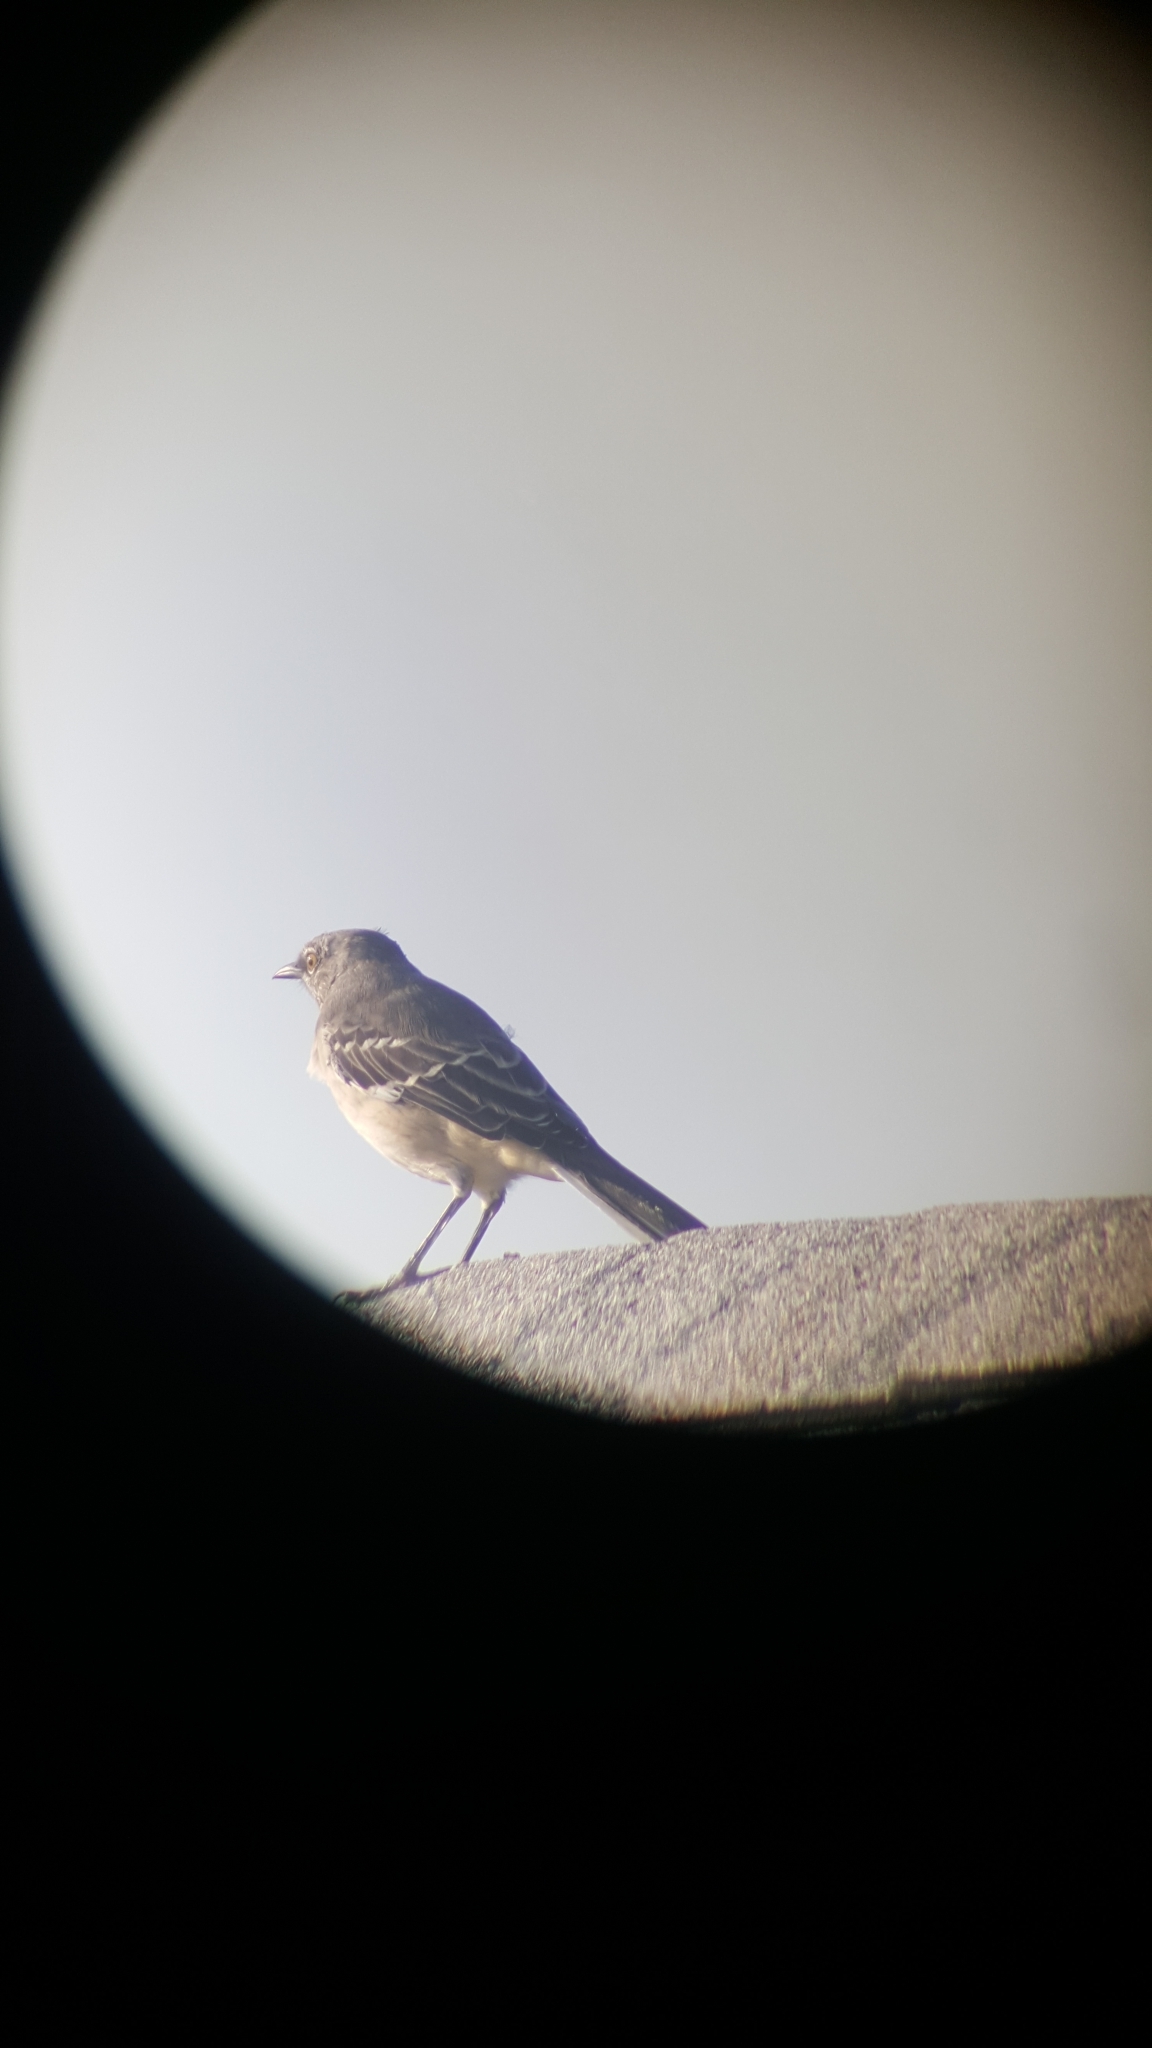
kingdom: Animalia
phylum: Chordata
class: Aves
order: Passeriformes
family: Mimidae
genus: Mimus
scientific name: Mimus polyglottos
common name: Northern mockingbird
